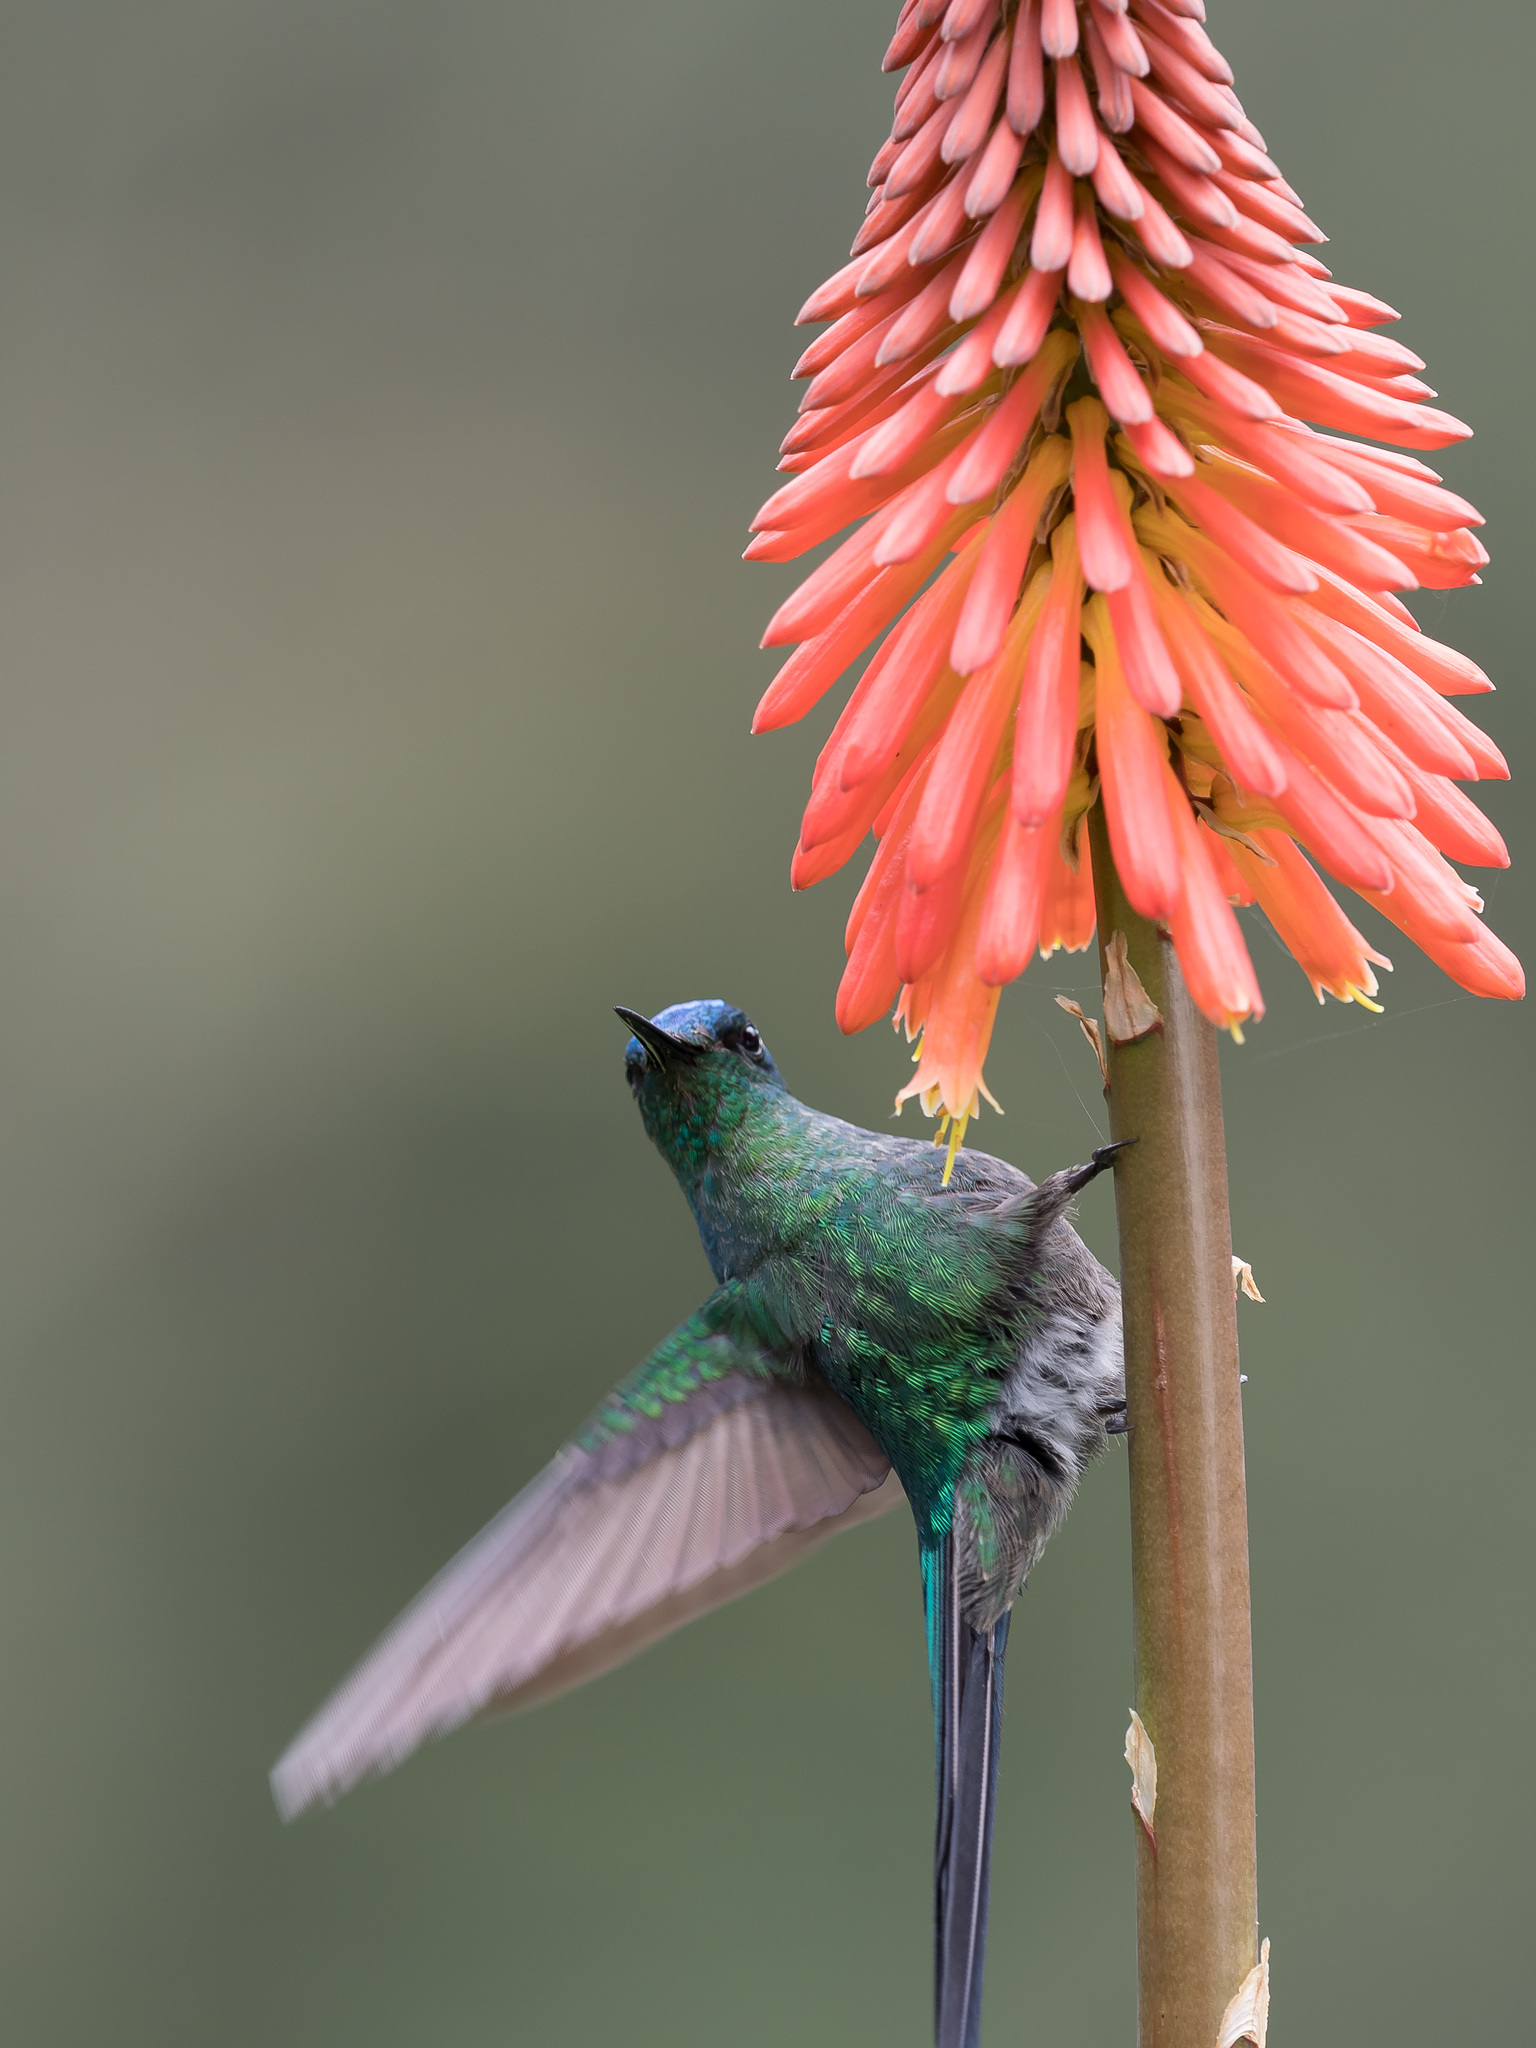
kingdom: Animalia
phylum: Chordata
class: Aves
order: Apodiformes
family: Trochilidae
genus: Aglaiocercus
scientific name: Aglaiocercus kingii
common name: Long-tailed sylph
